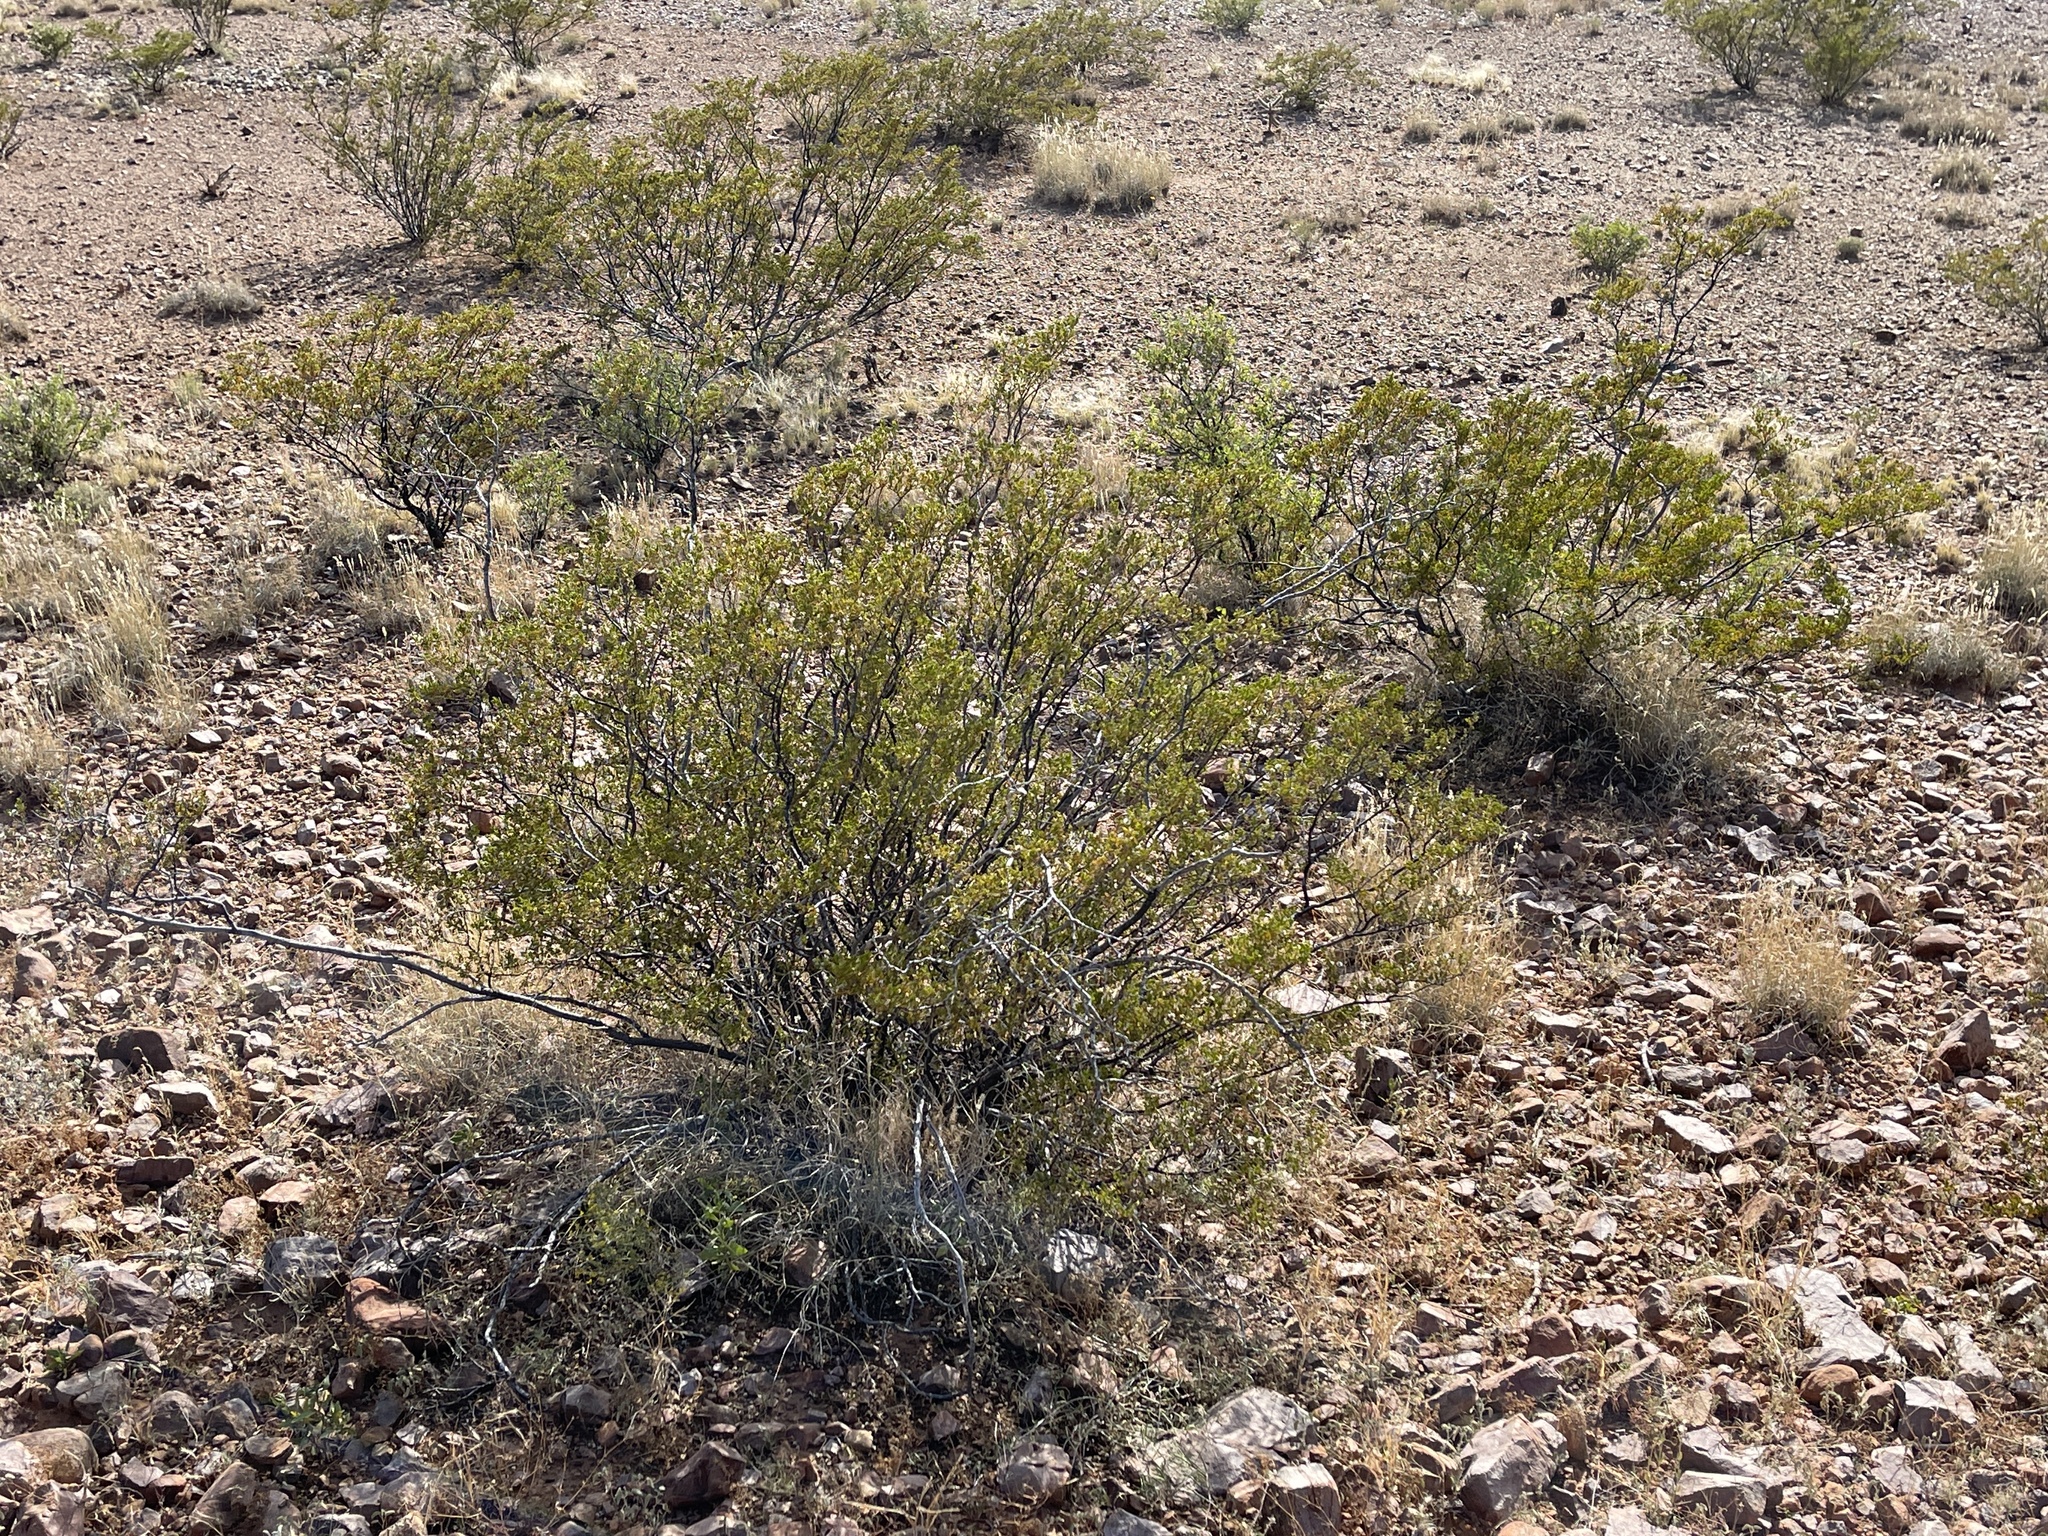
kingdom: Plantae
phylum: Tracheophyta
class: Magnoliopsida
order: Zygophyllales
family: Zygophyllaceae
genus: Larrea
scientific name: Larrea tridentata
